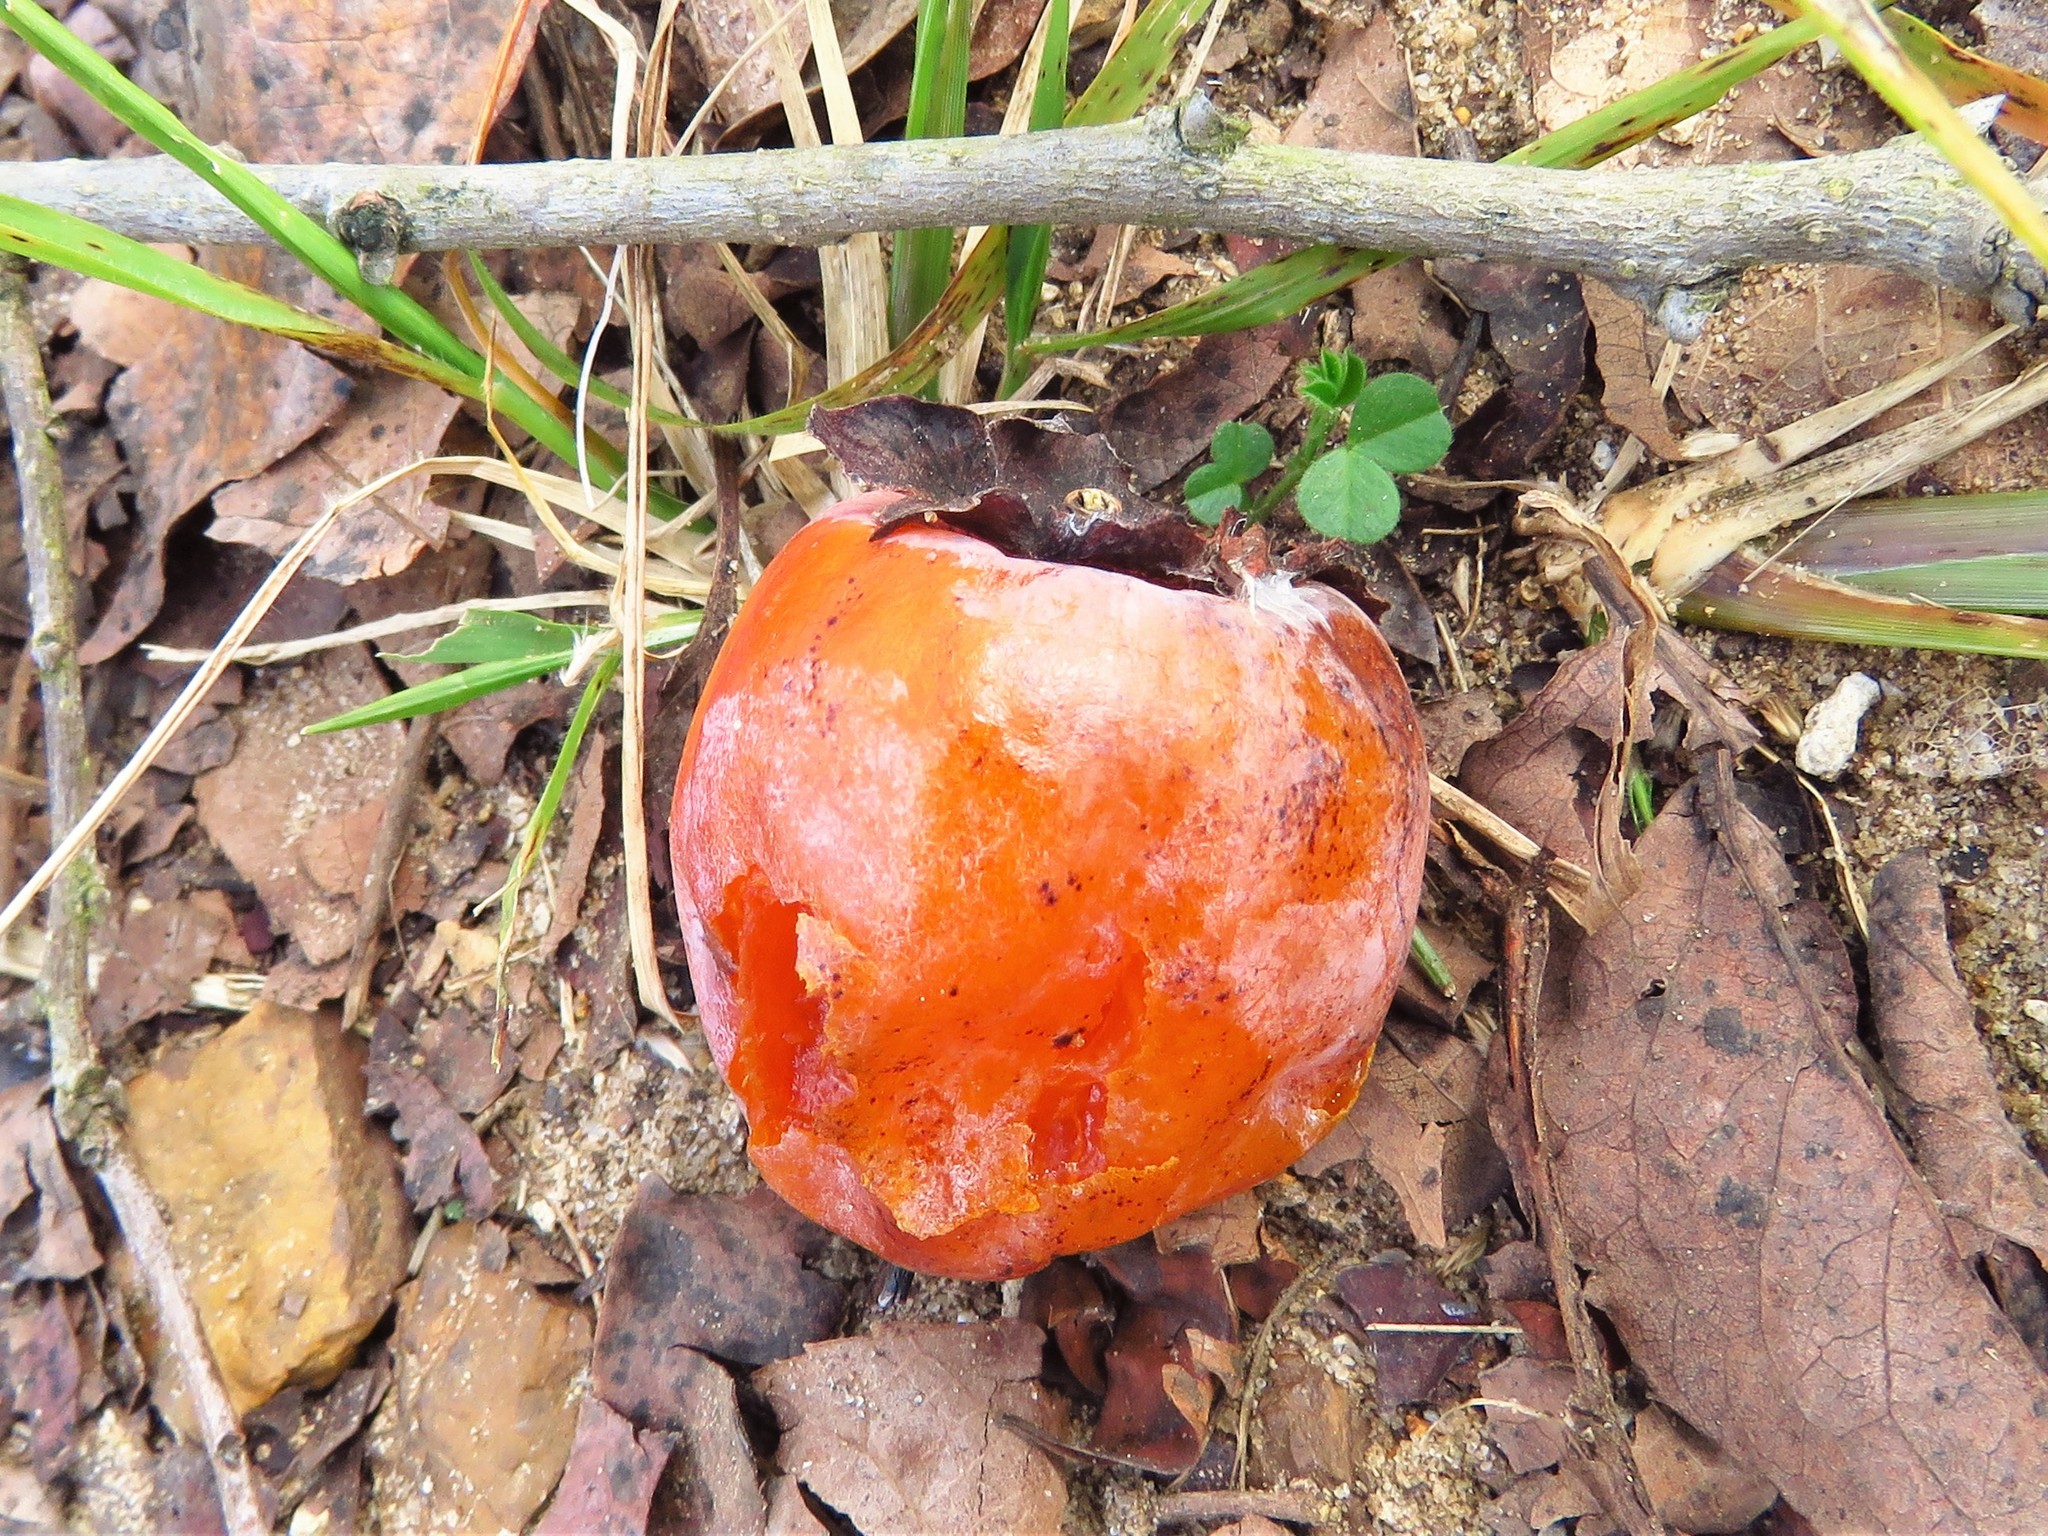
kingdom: Plantae
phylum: Tracheophyta
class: Magnoliopsida
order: Ericales
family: Ebenaceae
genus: Diospyros
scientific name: Diospyros virginiana
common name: Persimmon
